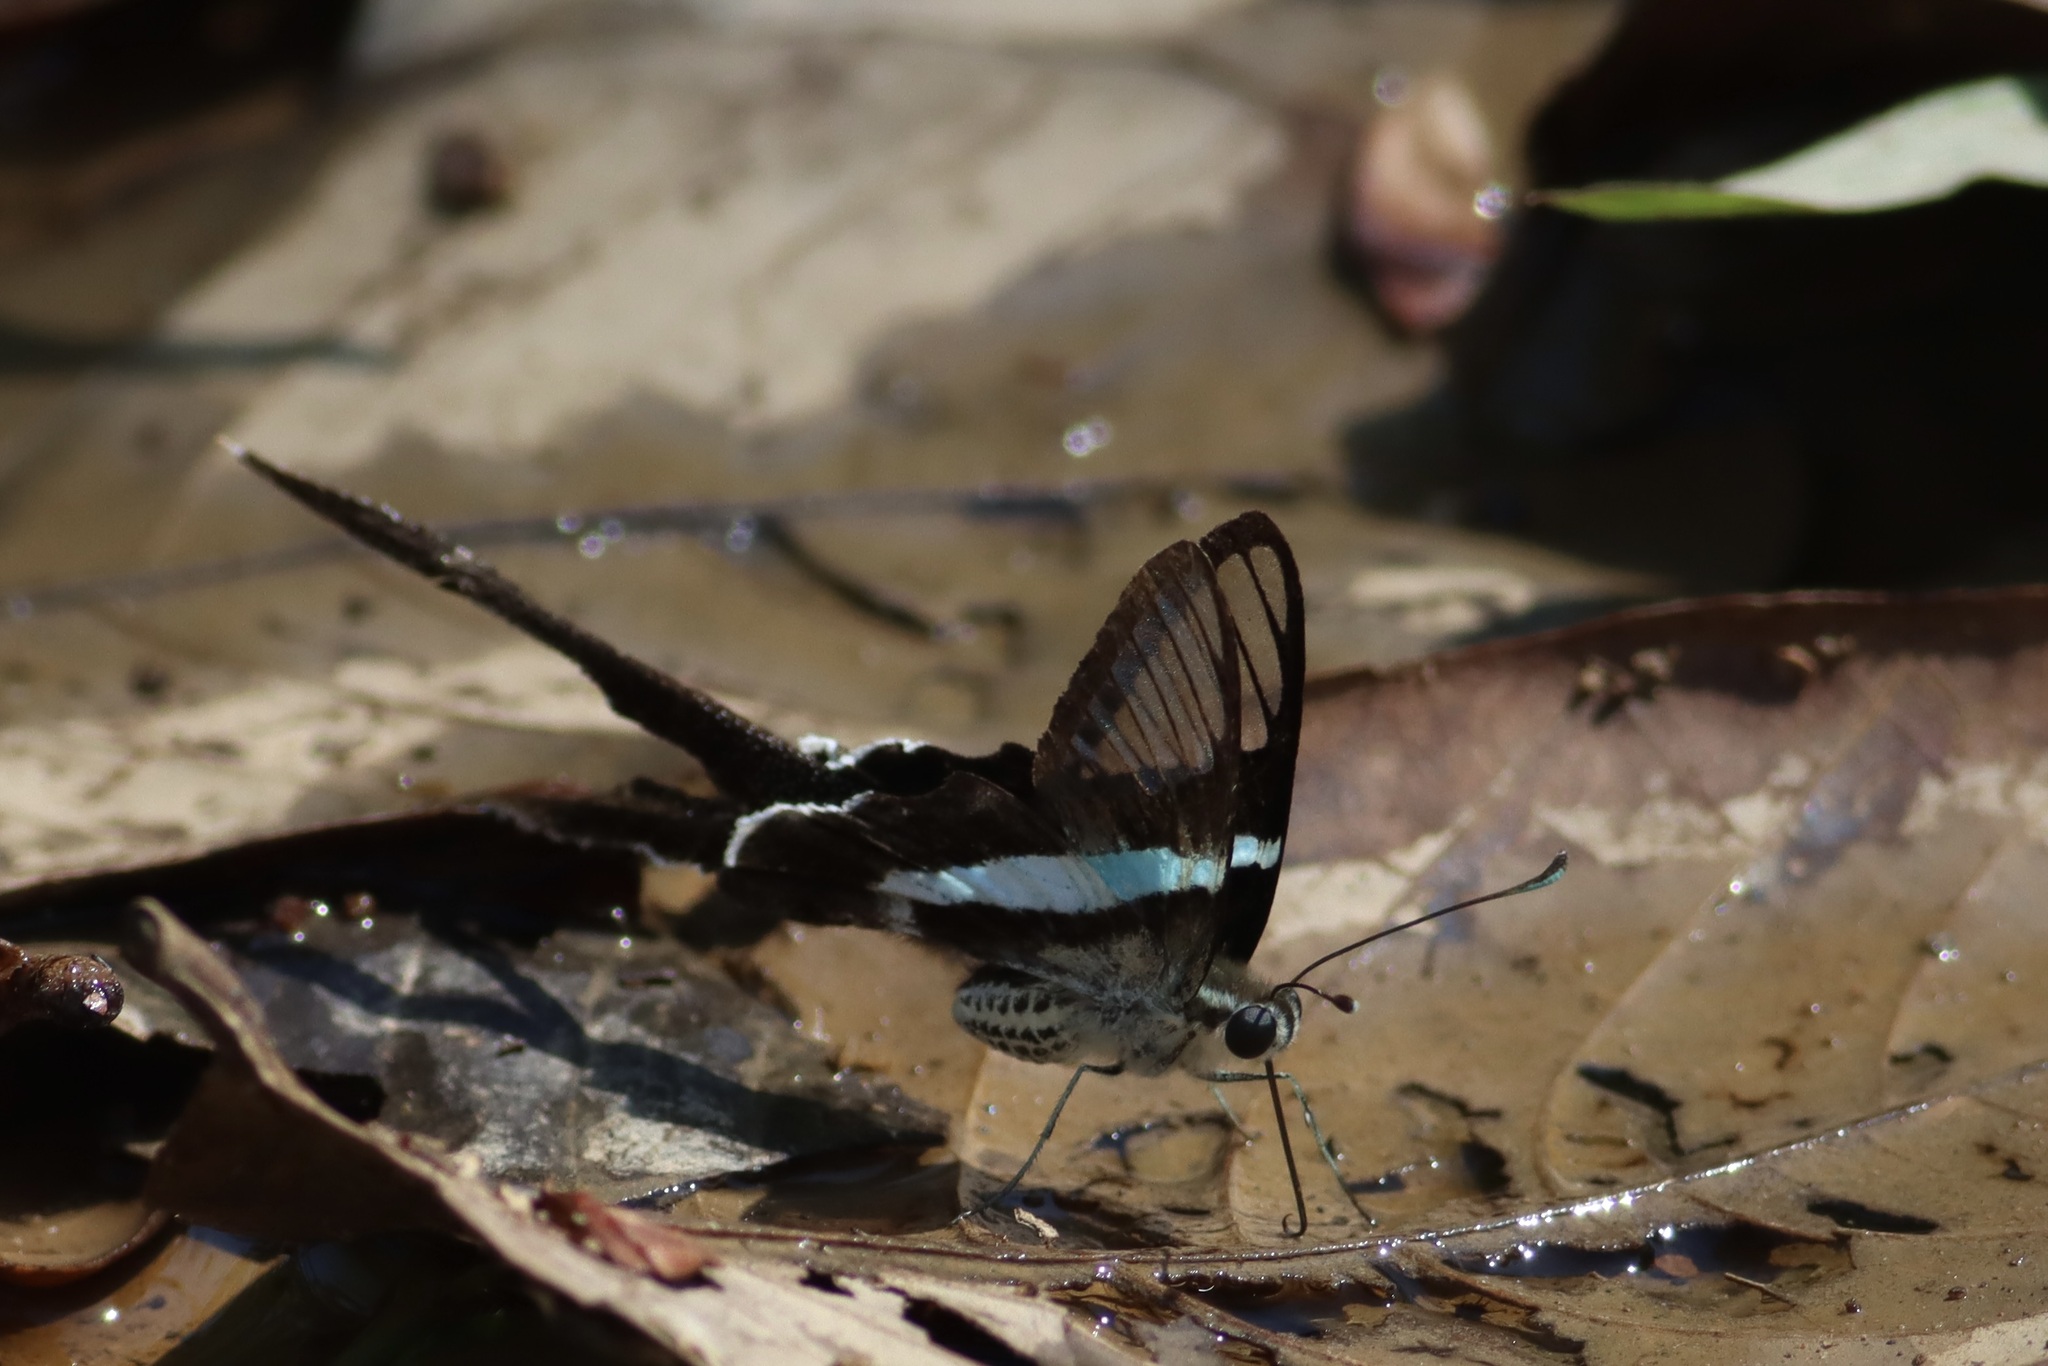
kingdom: Animalia
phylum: Arthropoda
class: Insecta
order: Lepidoptera
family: Papilionidae
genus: Lamproptera
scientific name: Lamproptera meges
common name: Green dragontail
